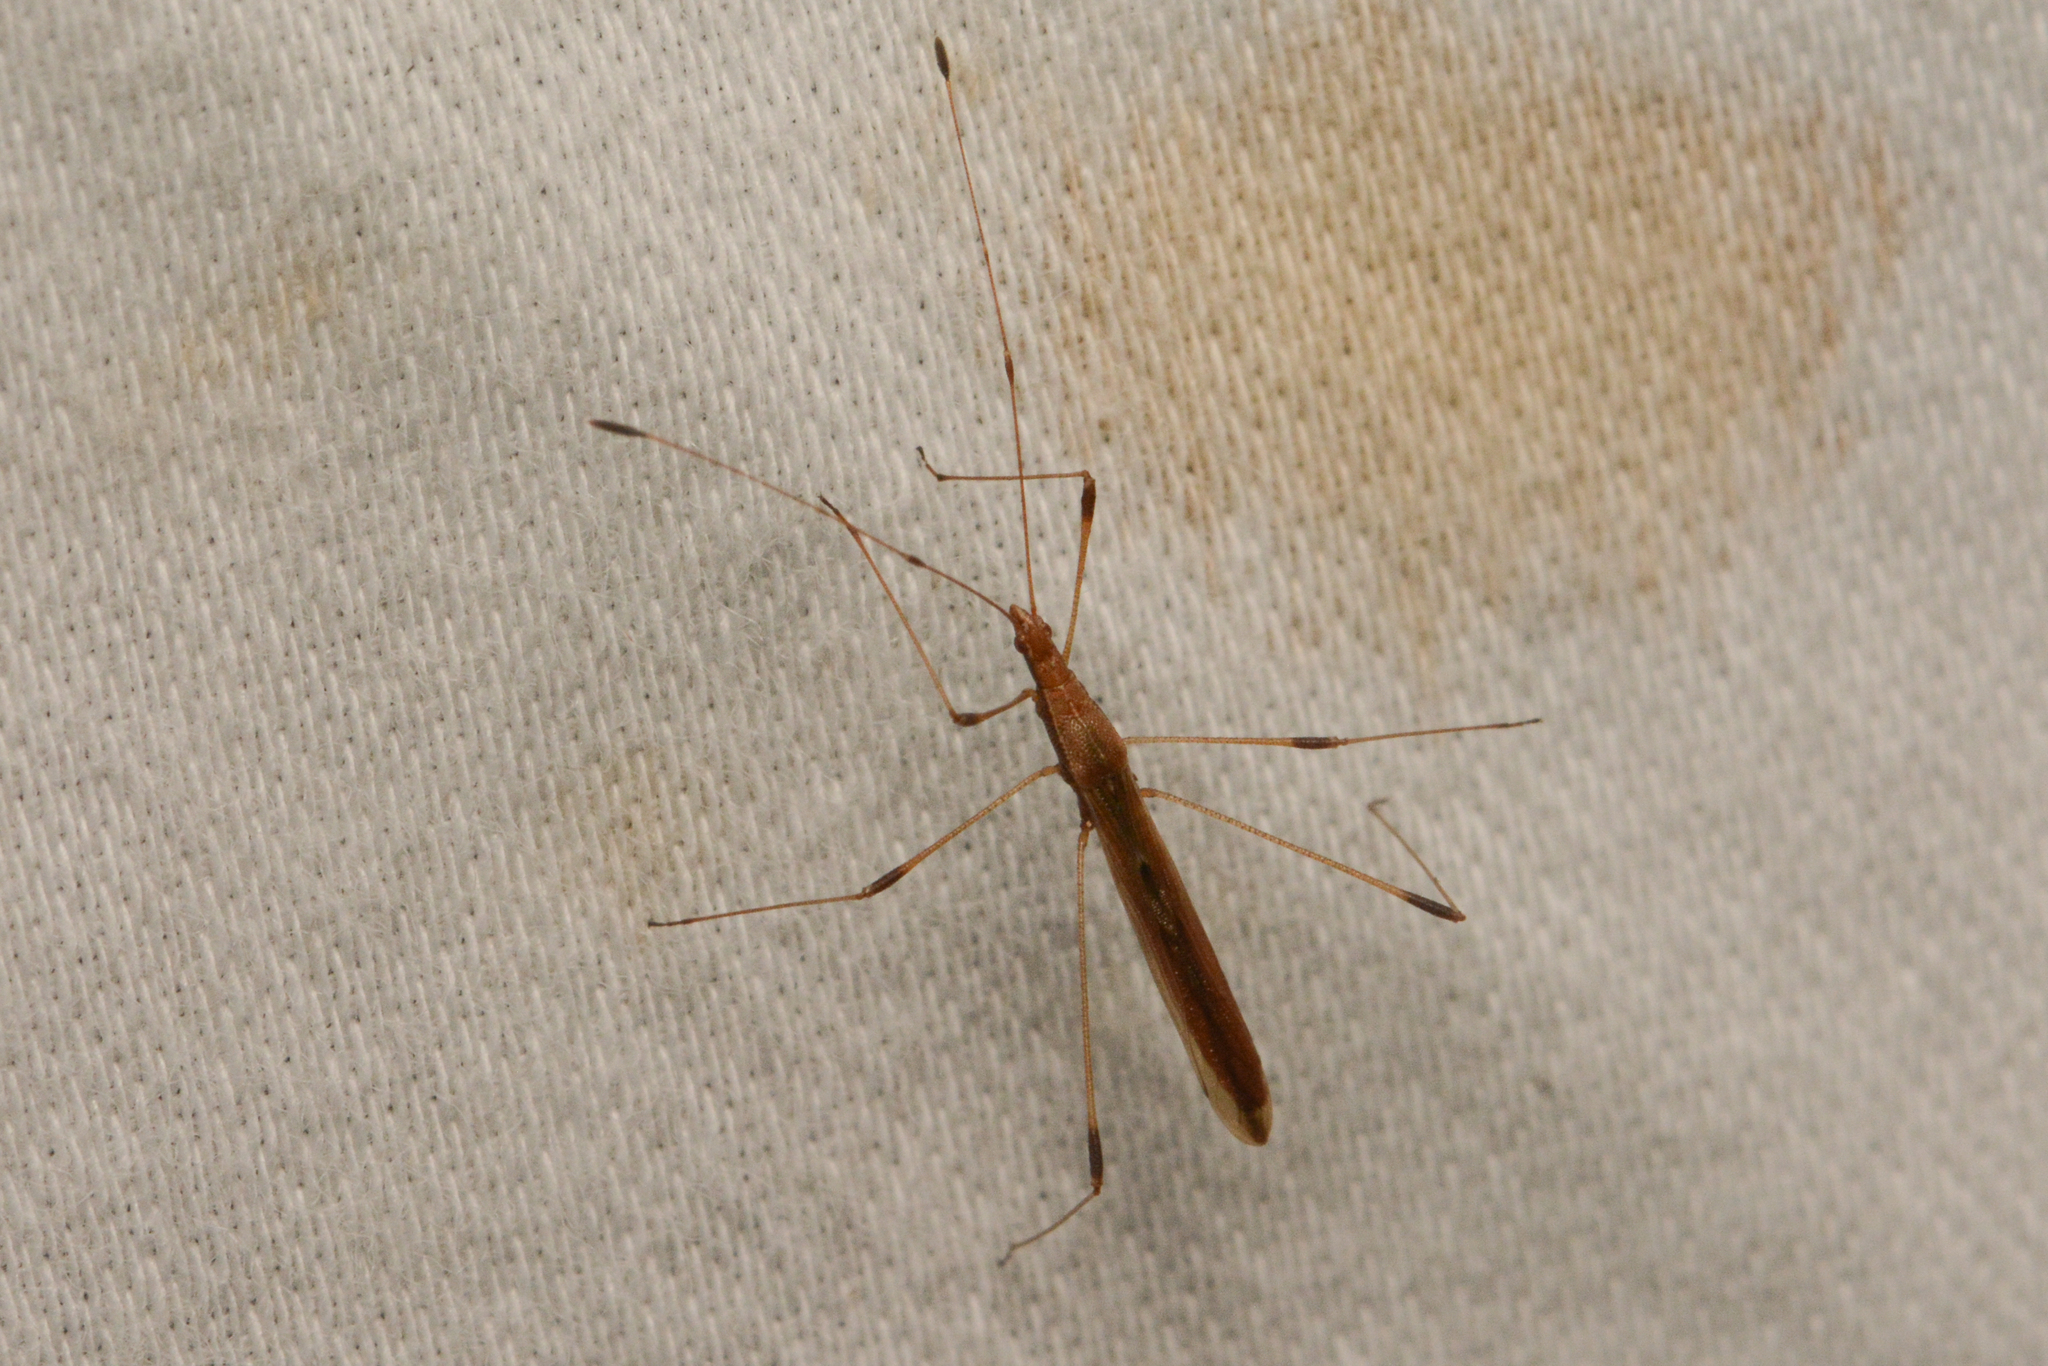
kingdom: Animalia
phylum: Arthropoda
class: Insecta
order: Hemiptera
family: Berytidae
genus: Neoneides
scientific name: Neoneides muticus
